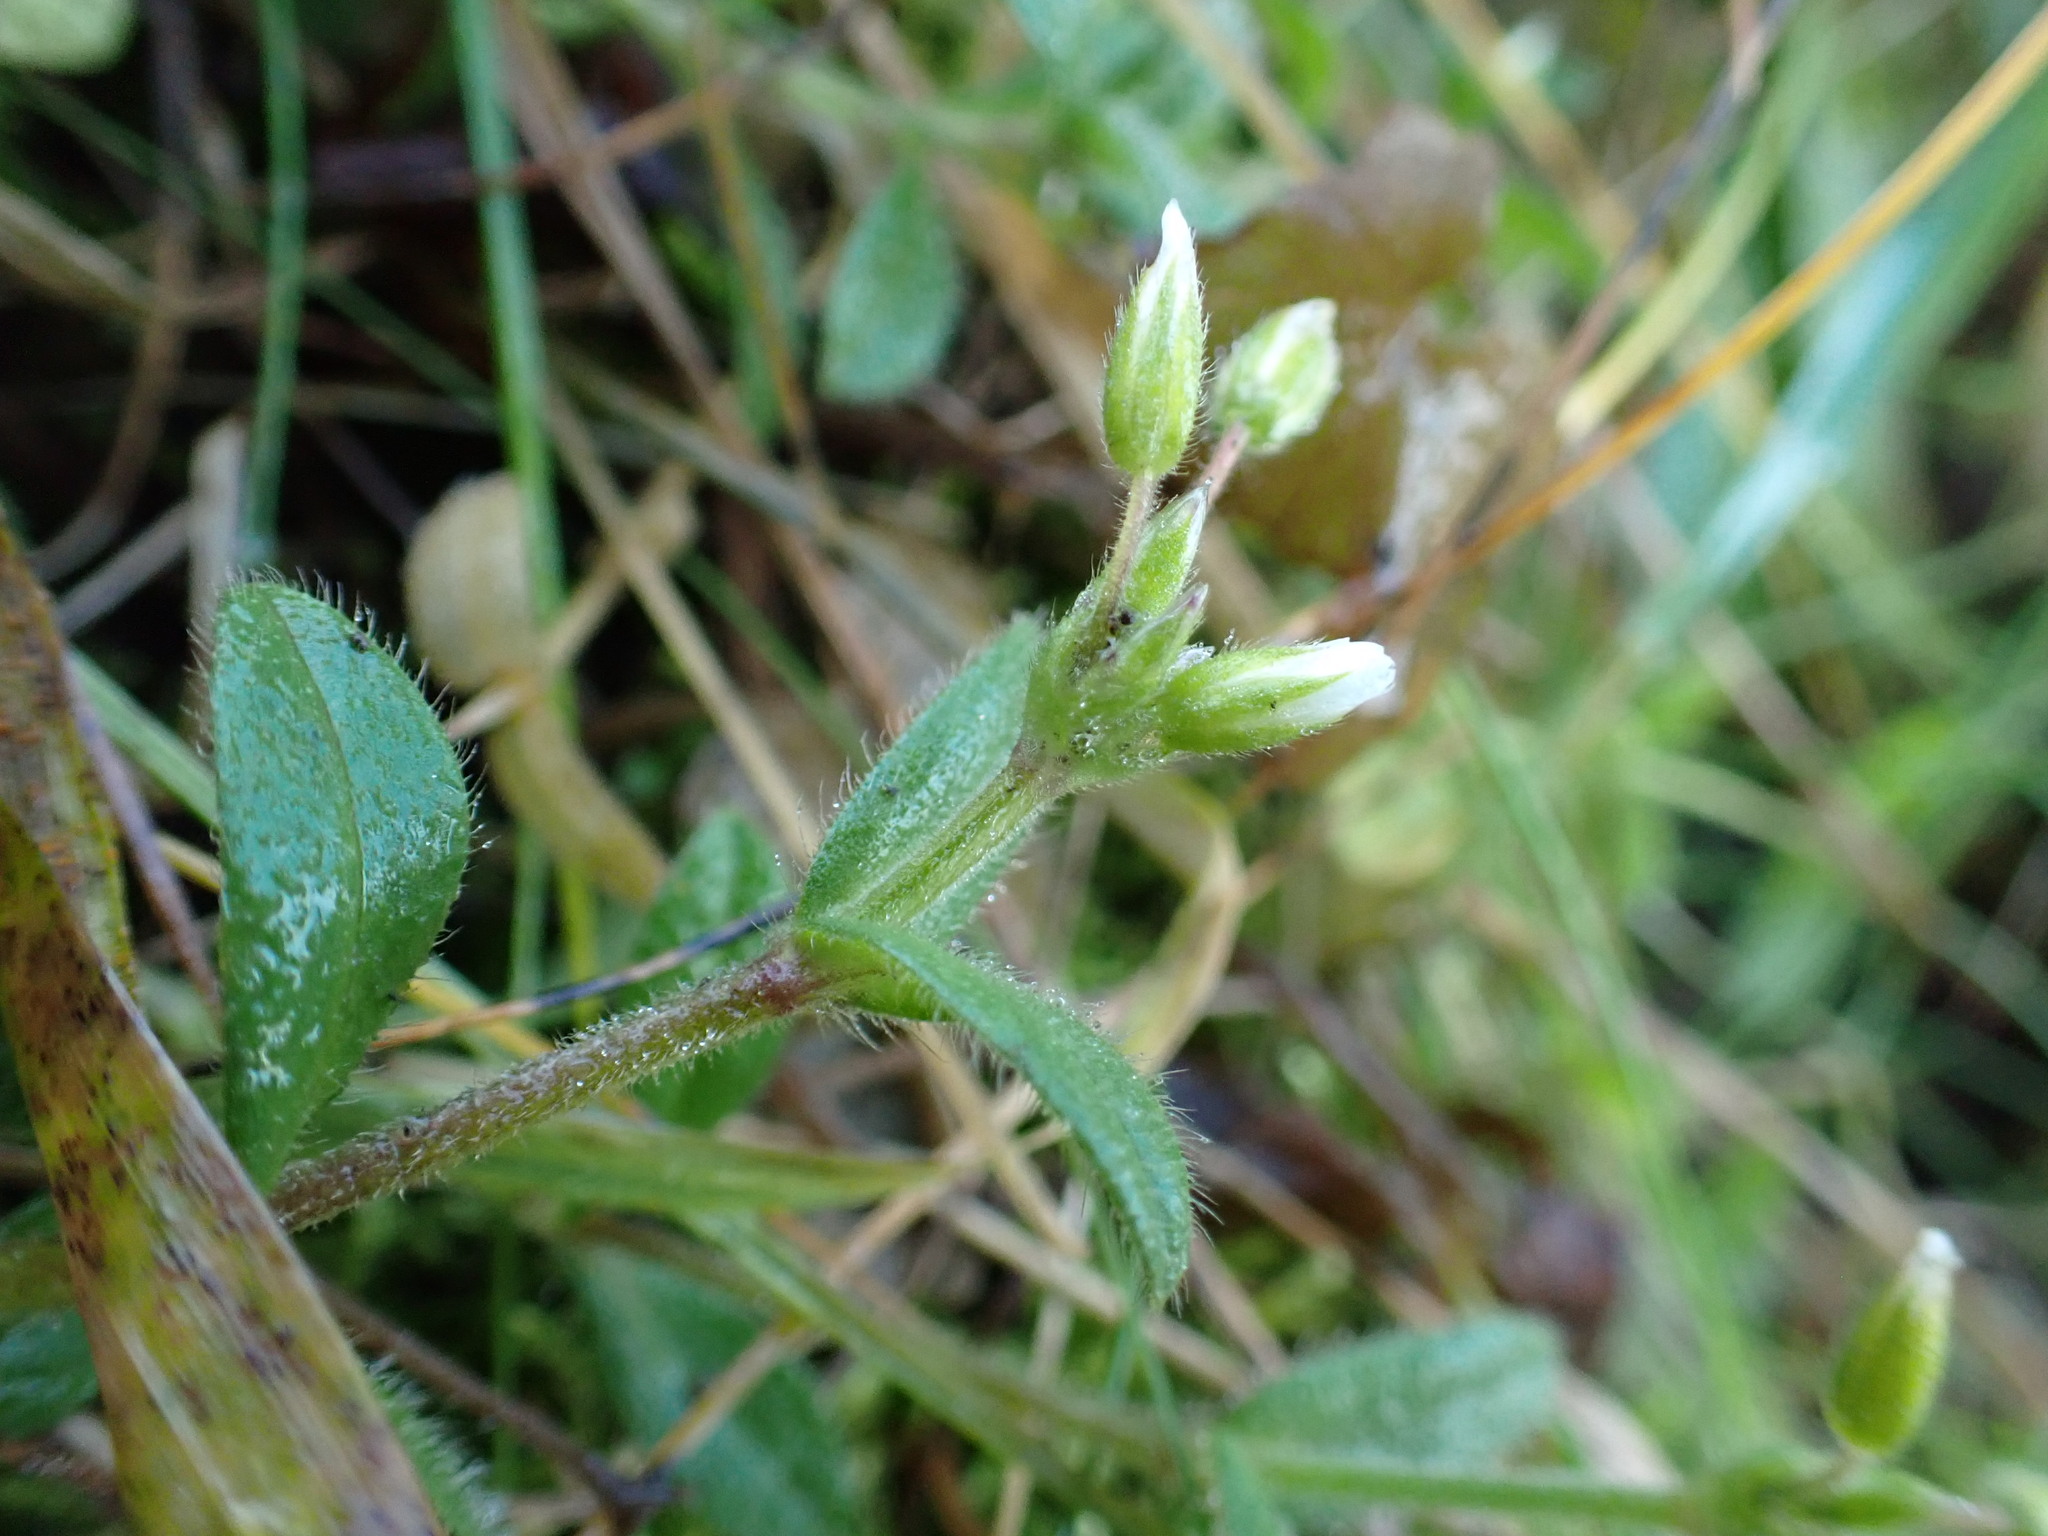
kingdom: Plantae
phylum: Tracheophyta
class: Magnoliopsida
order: Caryophyllales
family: Caryophyllaceae
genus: Cerastium
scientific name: Cerastium holosteoides
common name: Big chickweed
